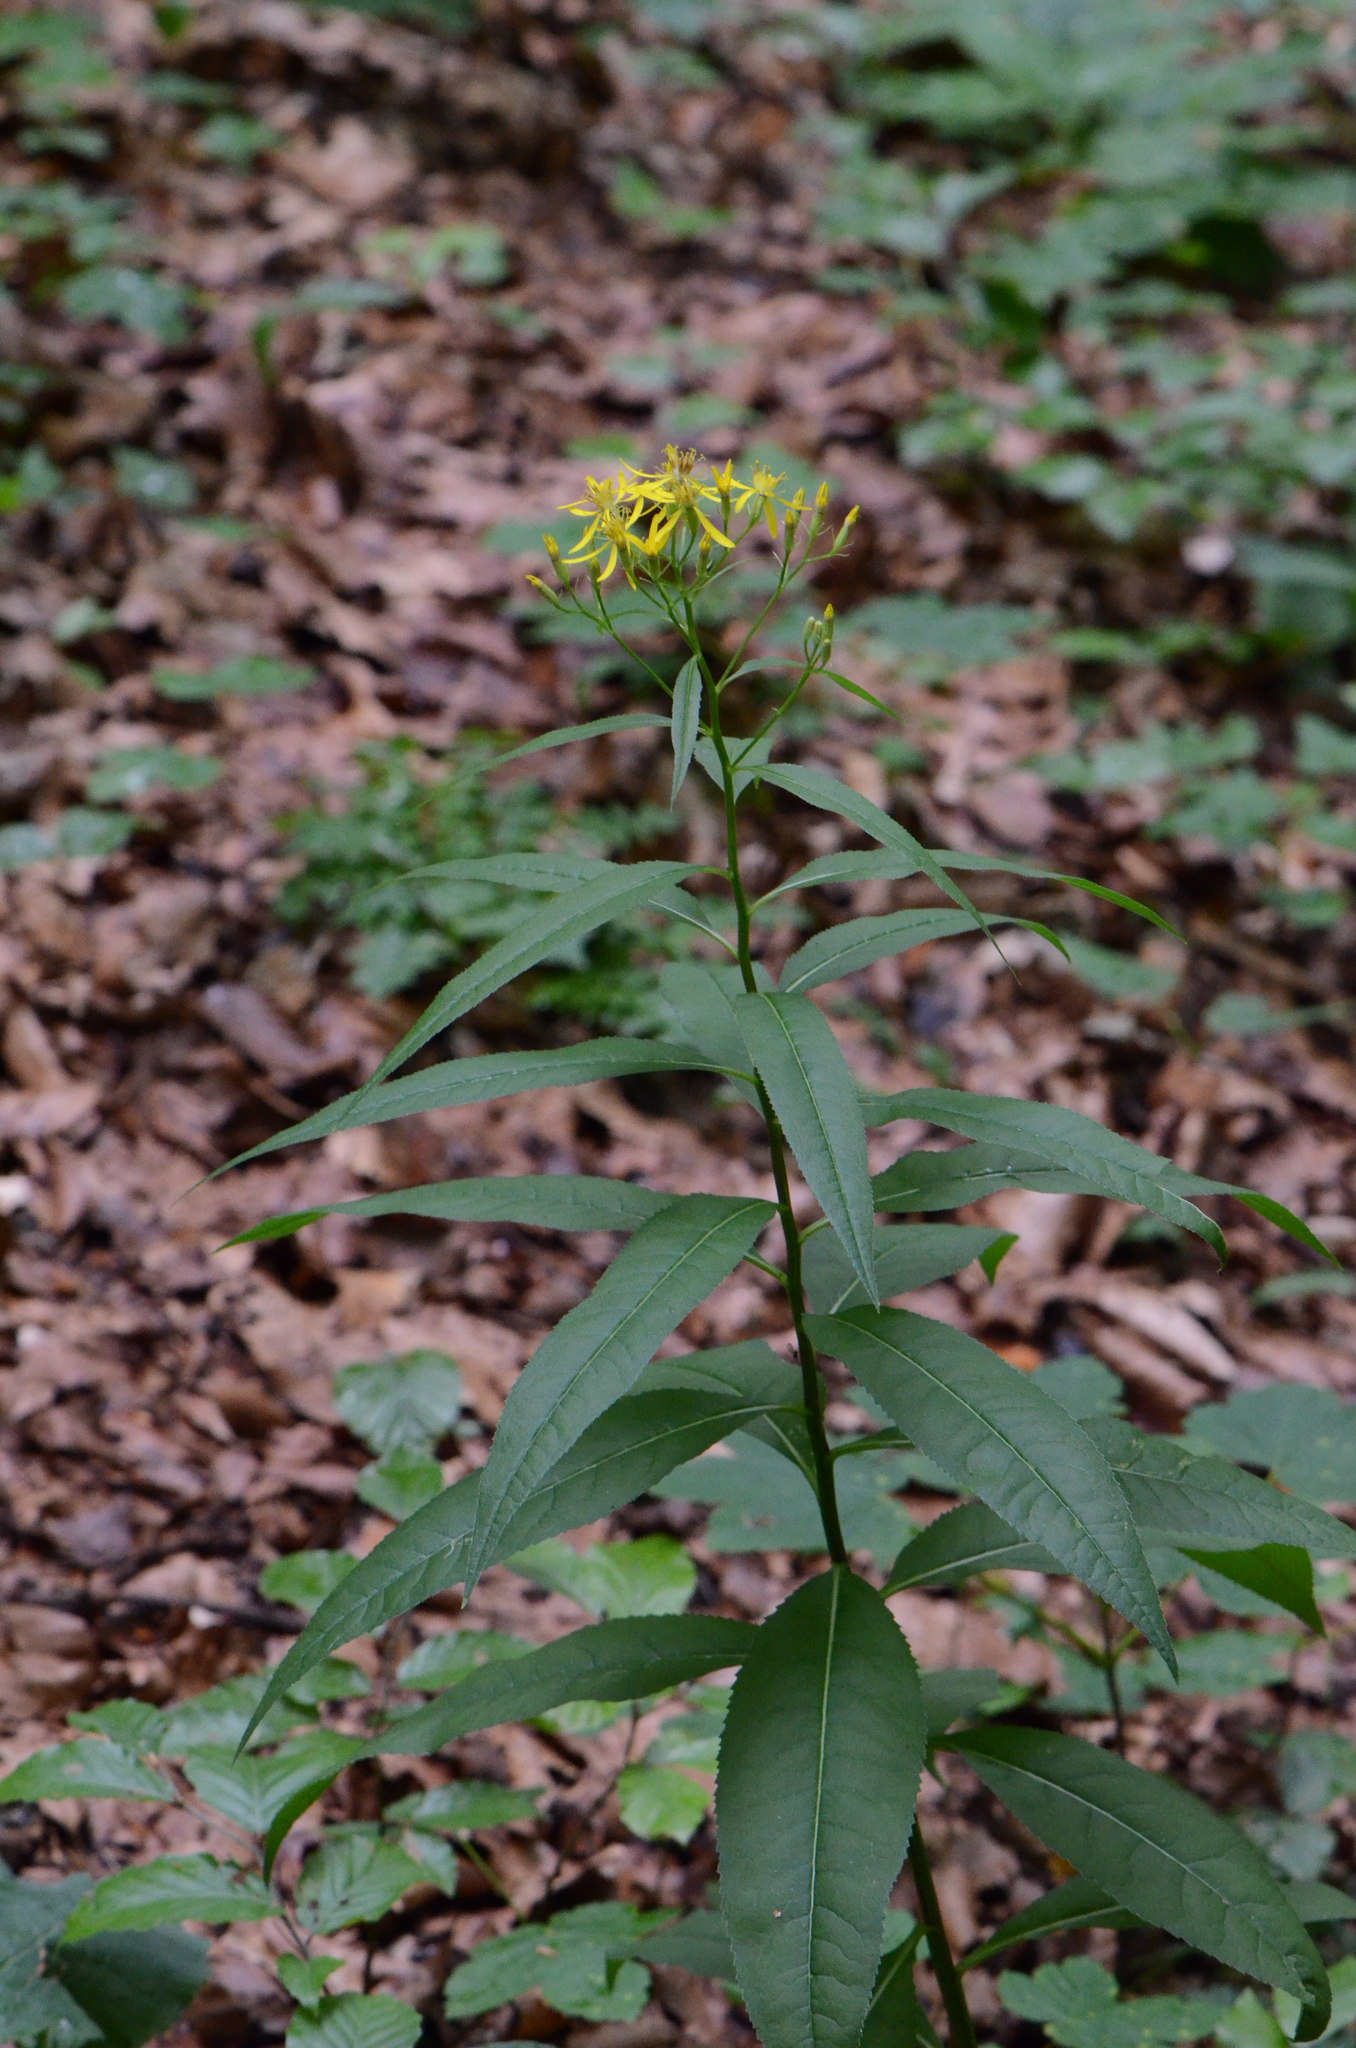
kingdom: Plantae
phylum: Tracheophyta
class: Magnoliopsida
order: Asterales
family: Asteraceae
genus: Senecio
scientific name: Senecio ovatus
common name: Wood ragwort
